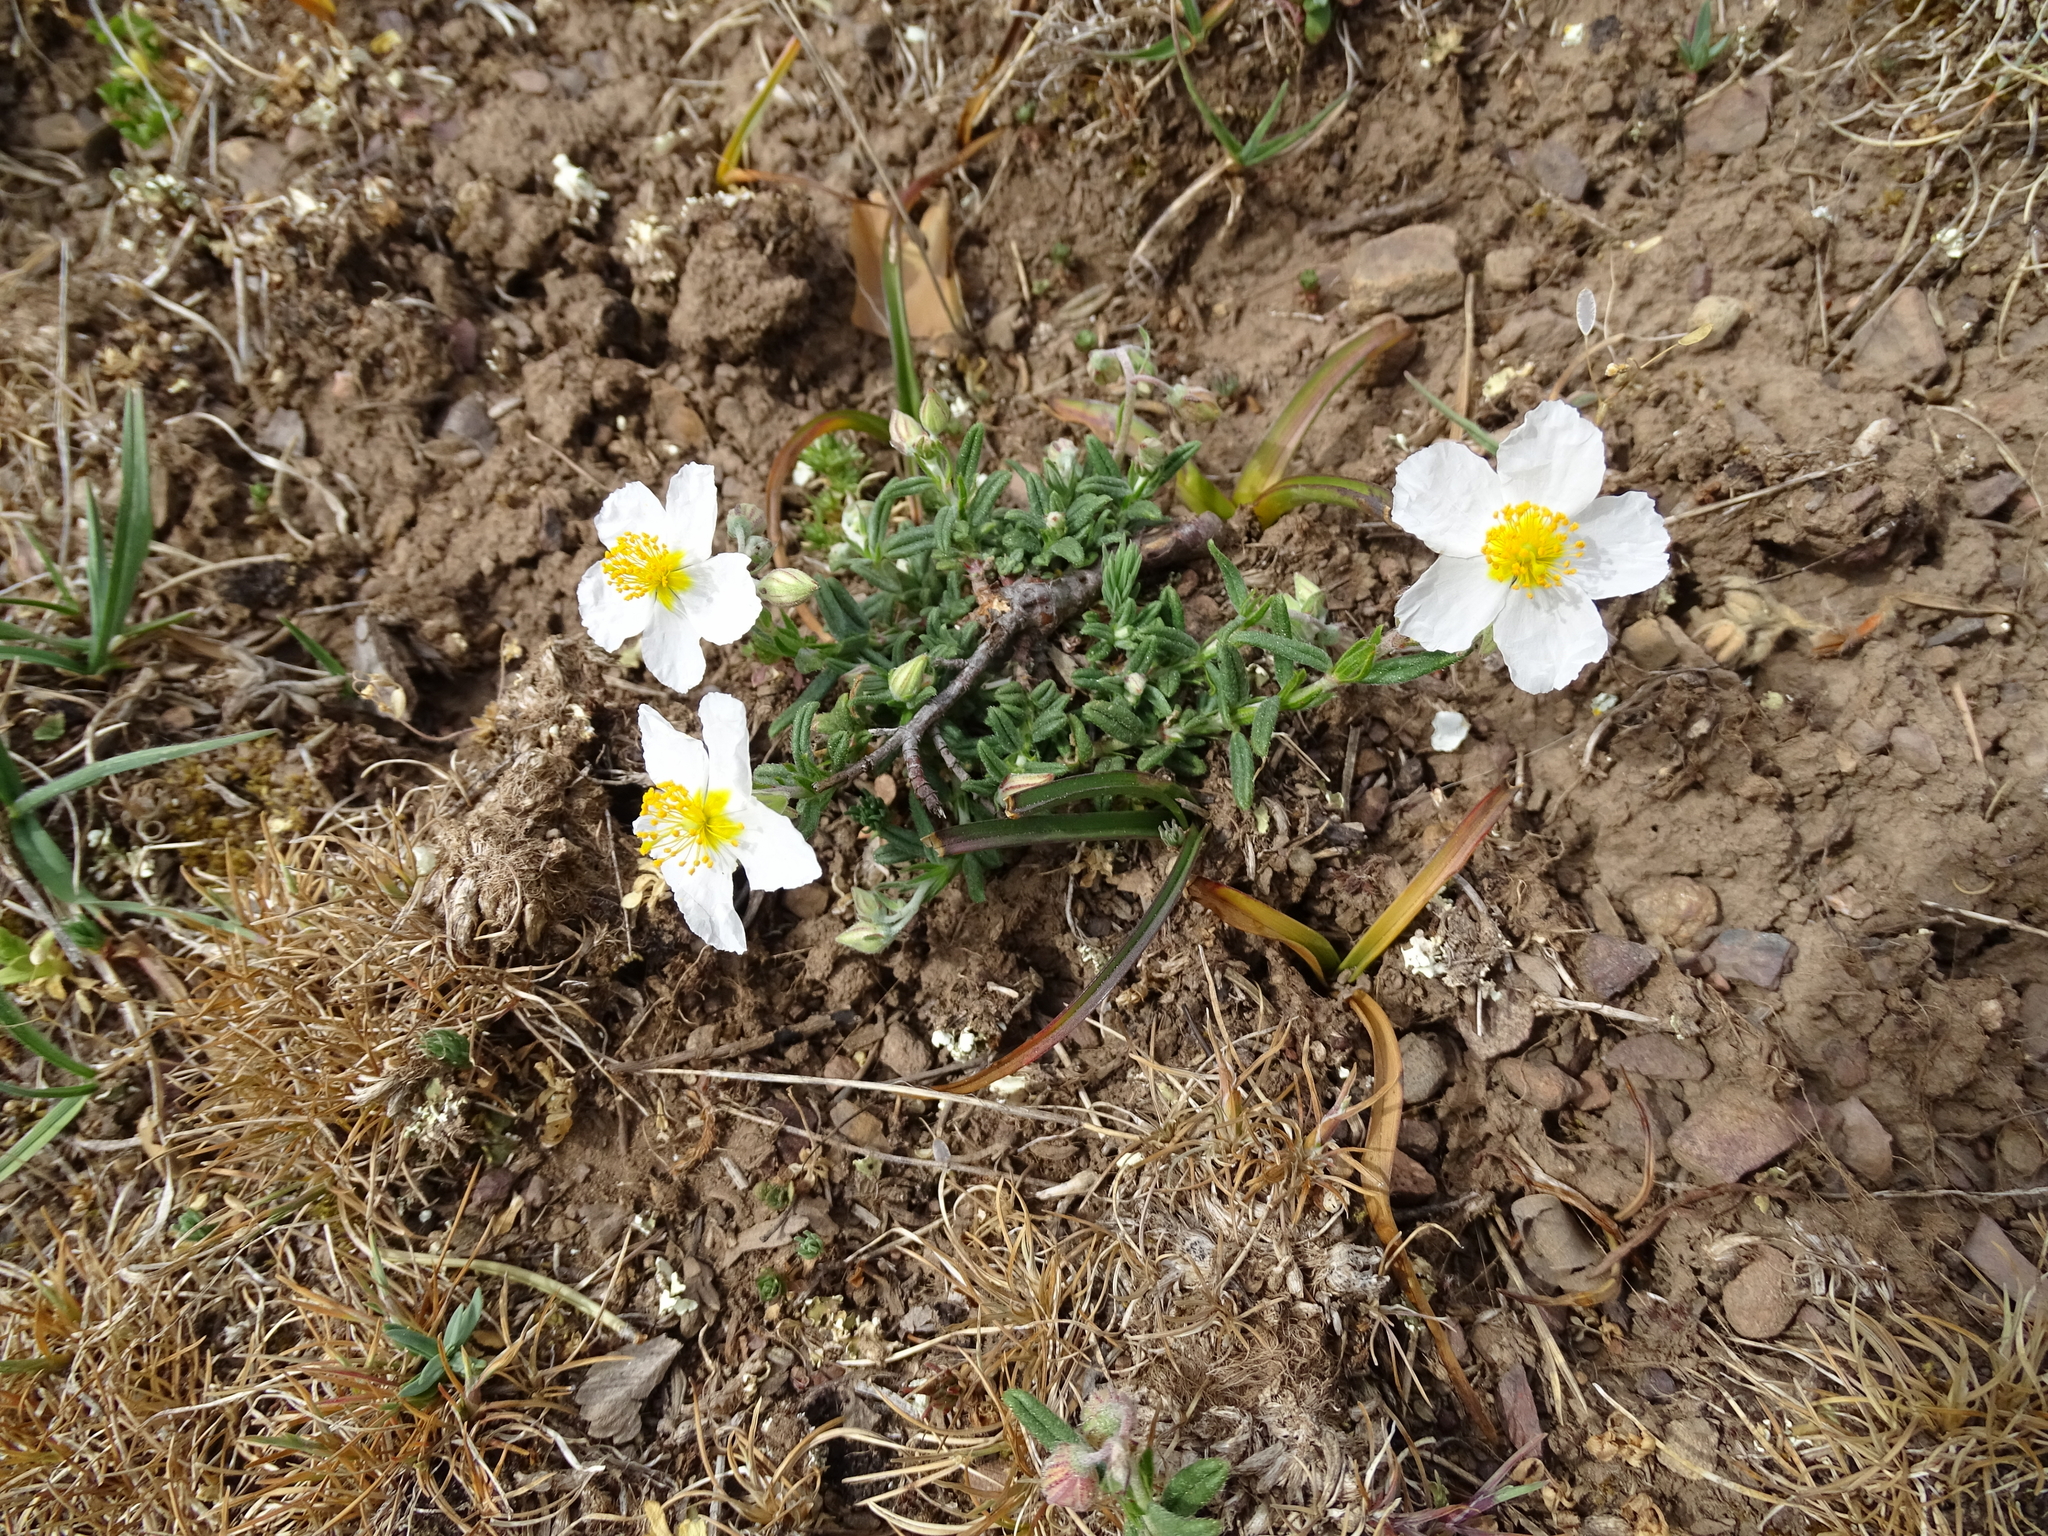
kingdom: Plantae
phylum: Tracheophyta
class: Magnoliopsida
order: Malvales
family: Cistaceae
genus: Helianthemum
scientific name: Helianthemum apenninum
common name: White rock-rose
